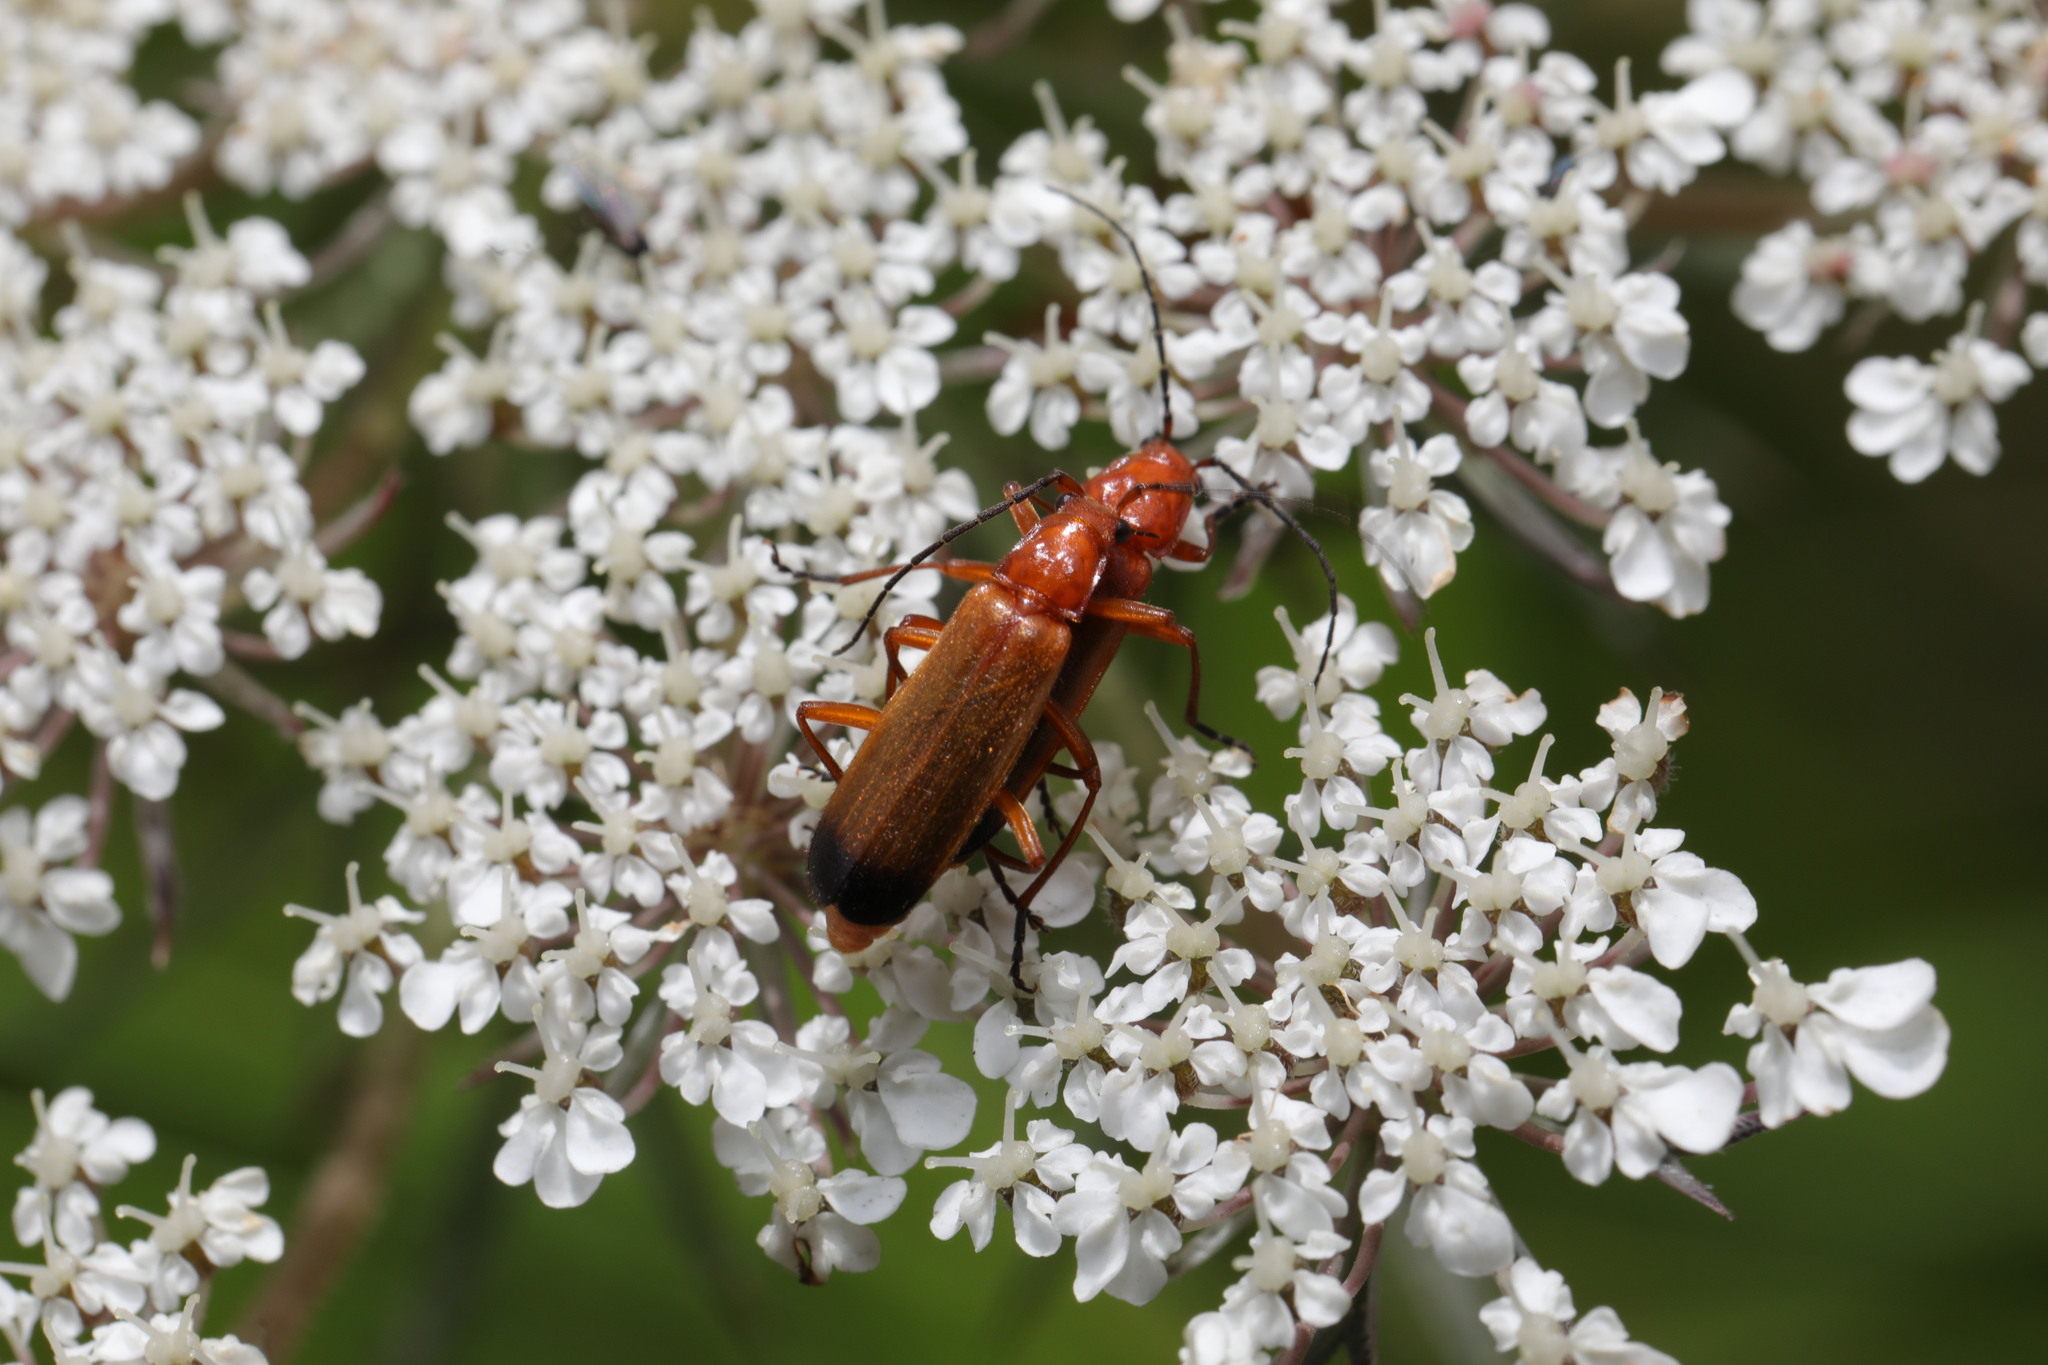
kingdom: Animalia
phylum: Arthropoda
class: Insecta
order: Coleoptera
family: Cantharidae
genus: Rhagonycha
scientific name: Rhagonycha fulva
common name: Common red soldier beetle
